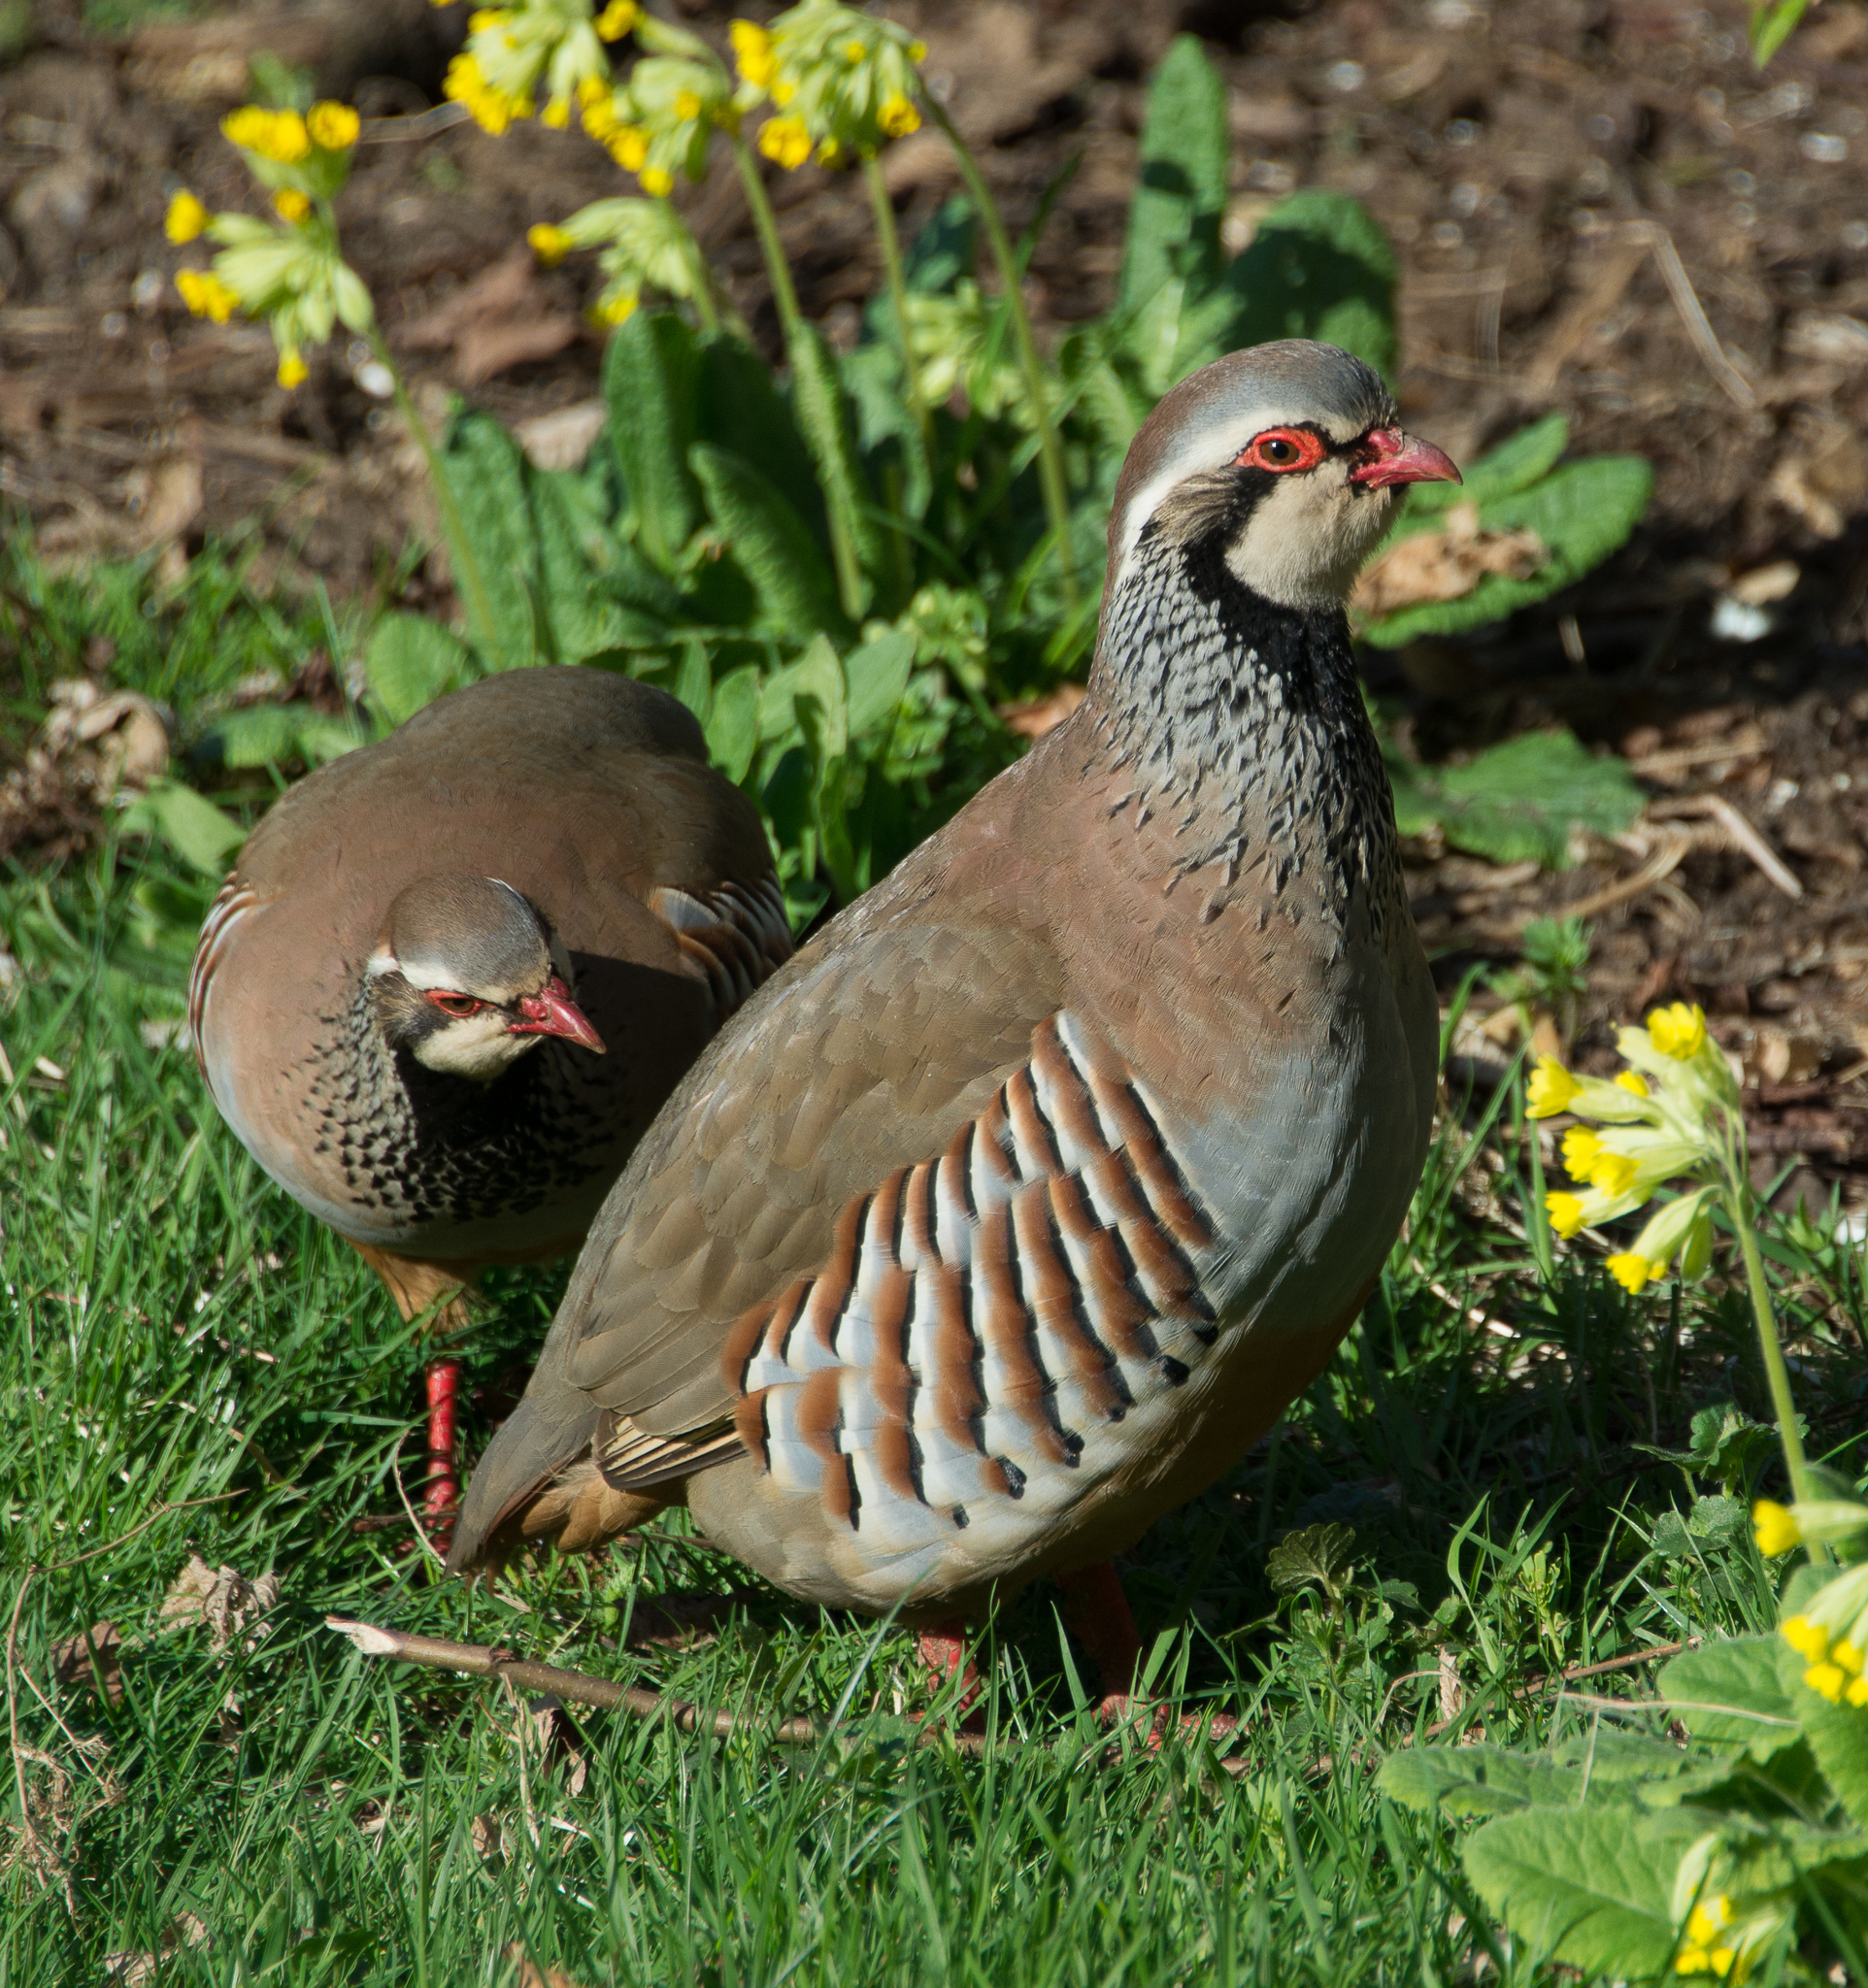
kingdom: Animalia
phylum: Chordata
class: Aves
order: Galliformes
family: Phasianidae
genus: Alectoris
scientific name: Alectoris rufa
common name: Red-legged partridge
